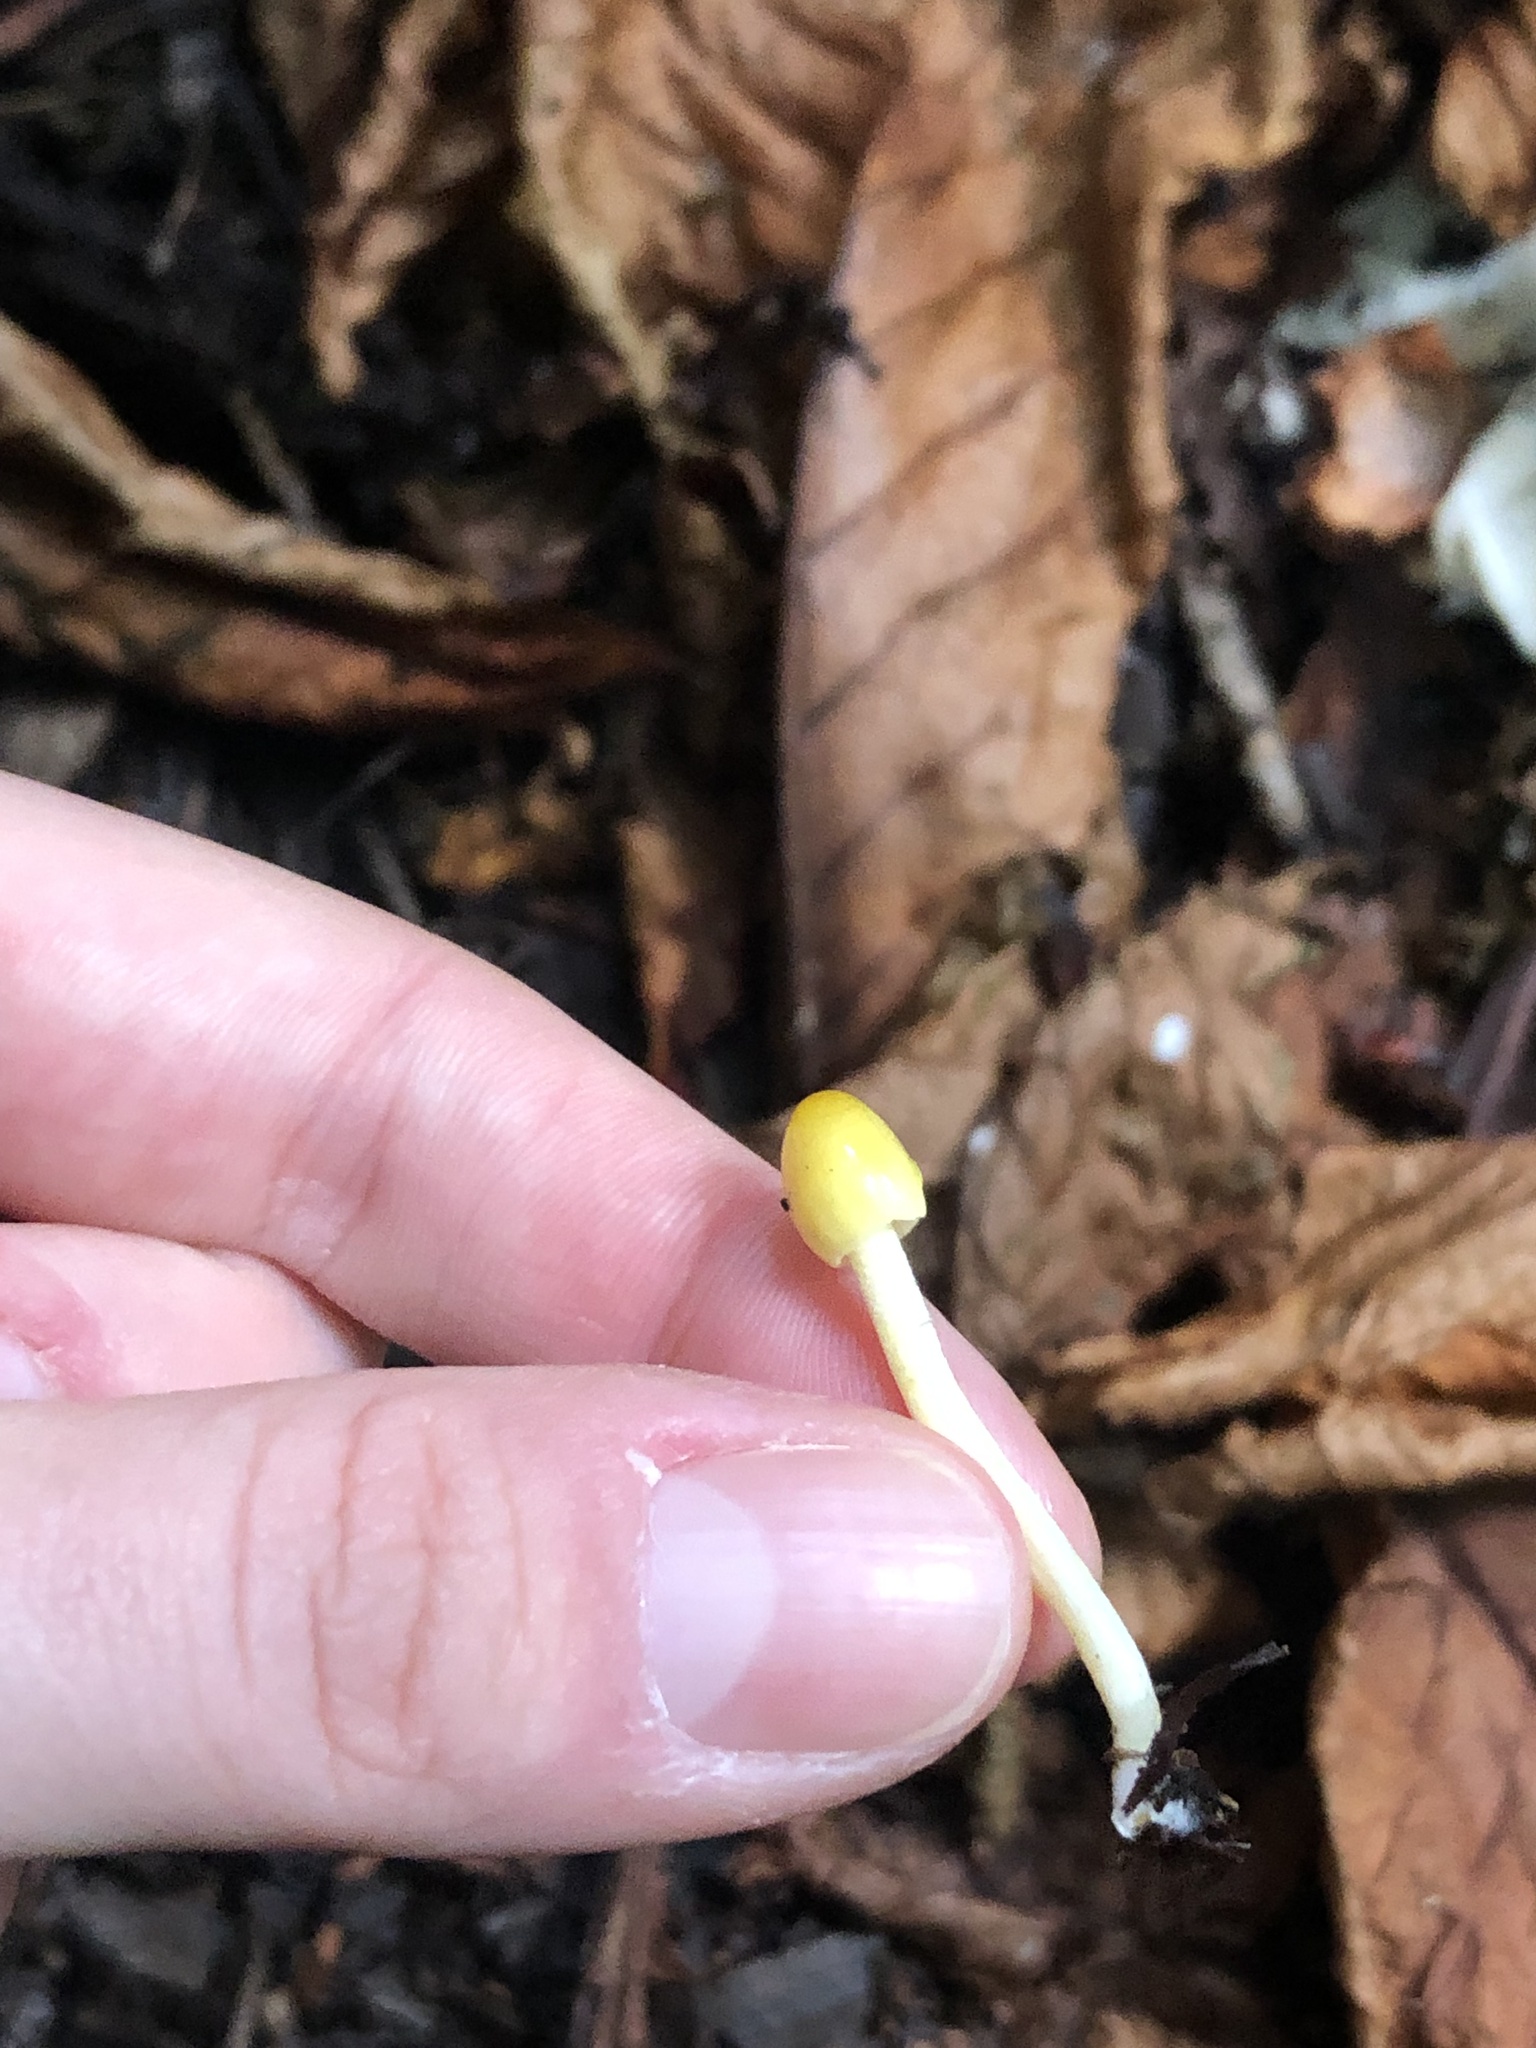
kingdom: Fungi
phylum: Basidiomycota
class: Agaricomycetes
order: Agaricales
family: Bolbitiaceae
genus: Bolbitius
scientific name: Bolbitius titubans
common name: Yellow fieldcap
